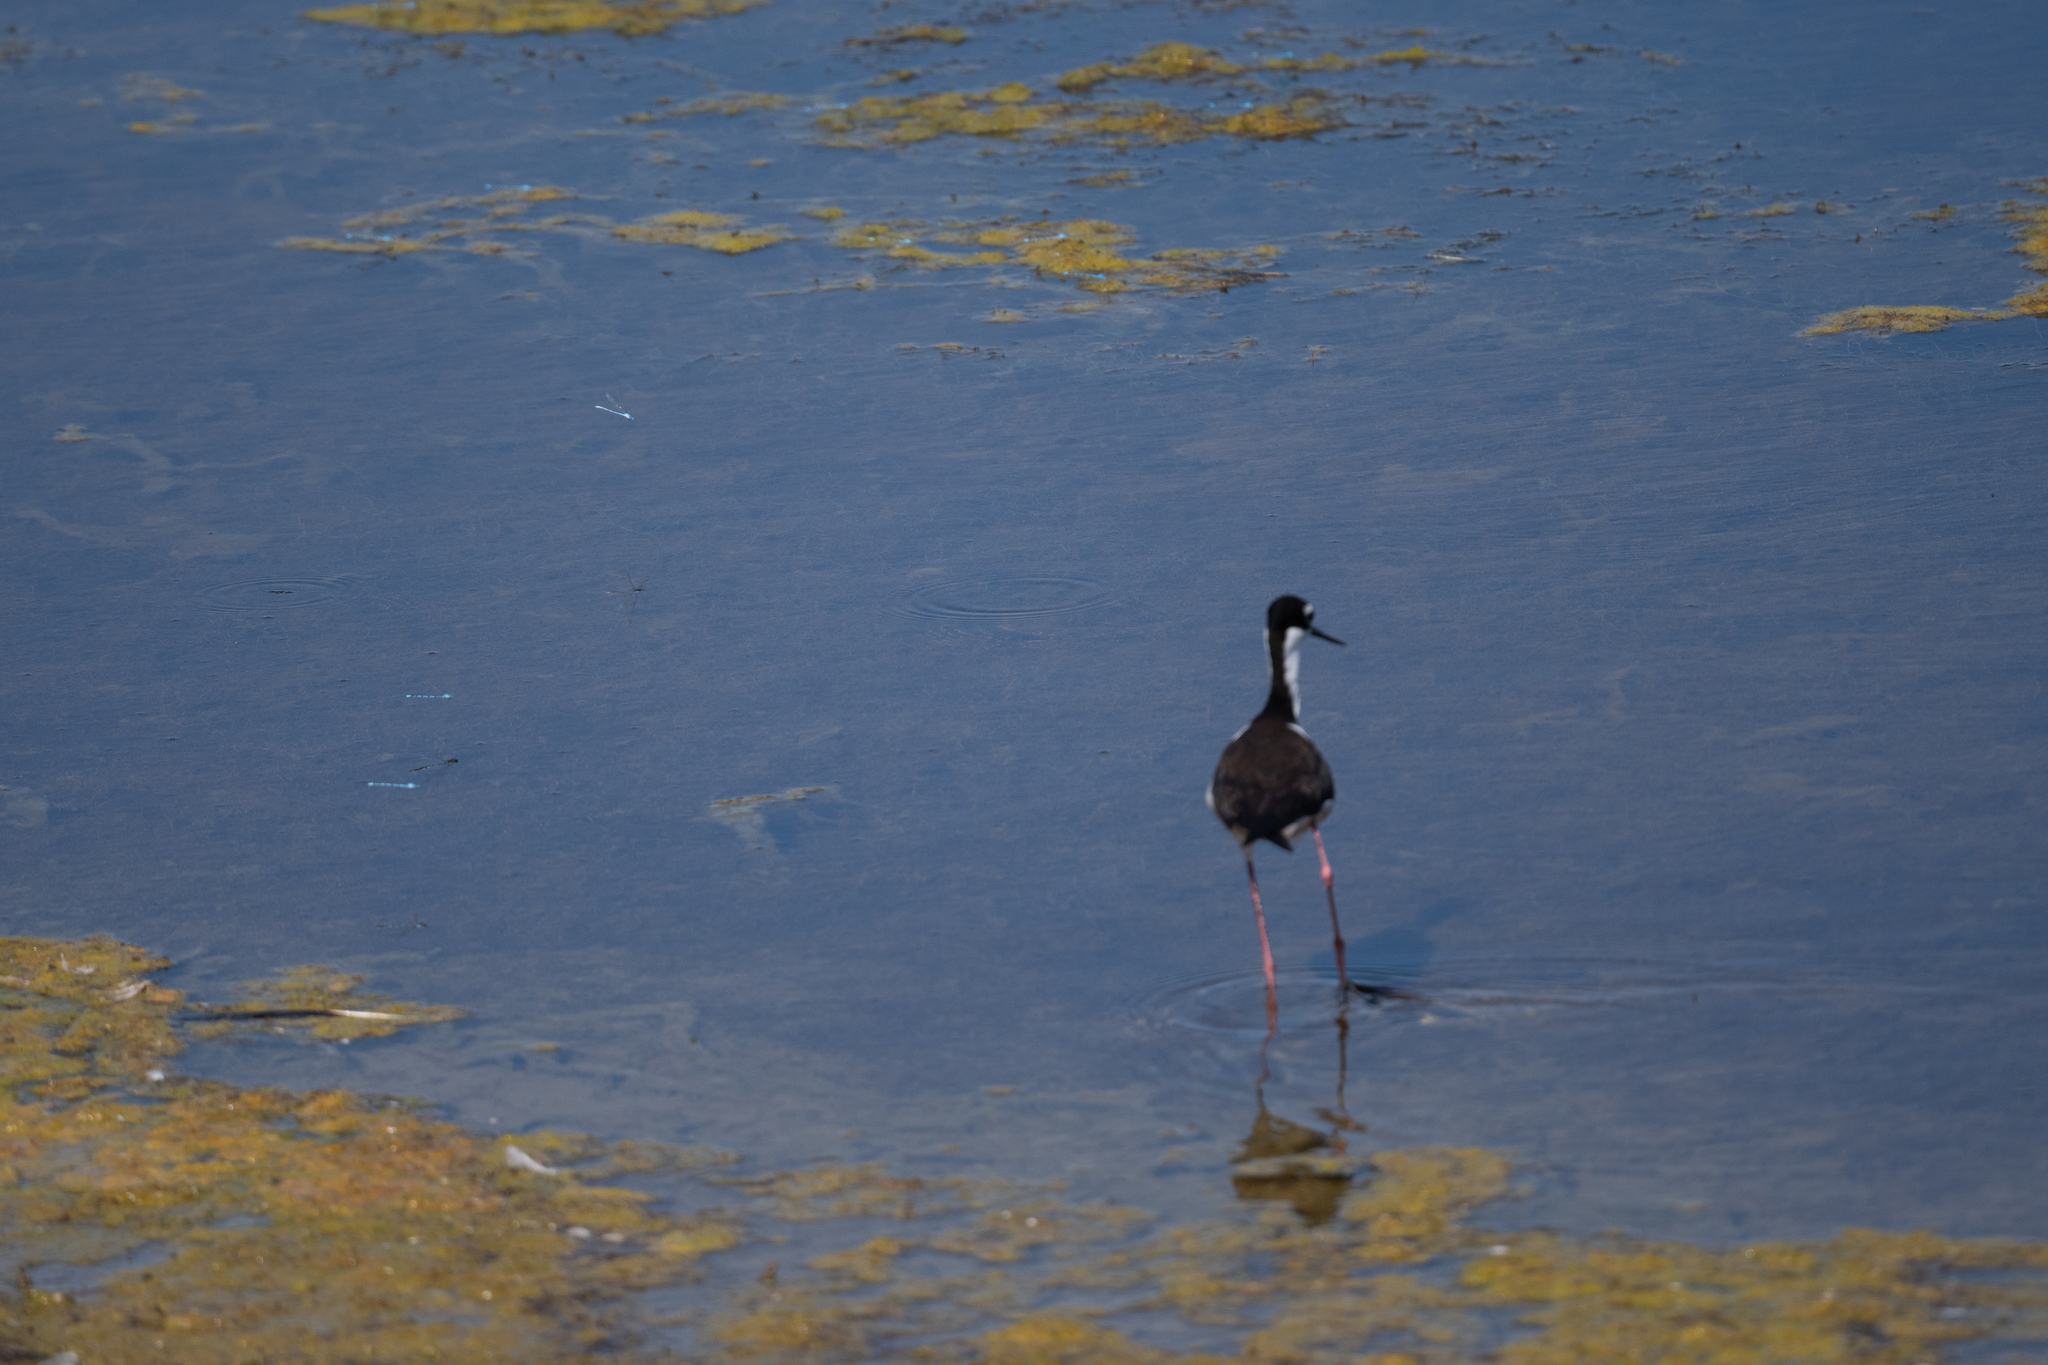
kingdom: Animalia
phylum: Chordata
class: Aves
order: Charadriiformes
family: Recurvirostridae
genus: Himantopus
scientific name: Himantopus mexicanus
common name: Black-necked stilt
